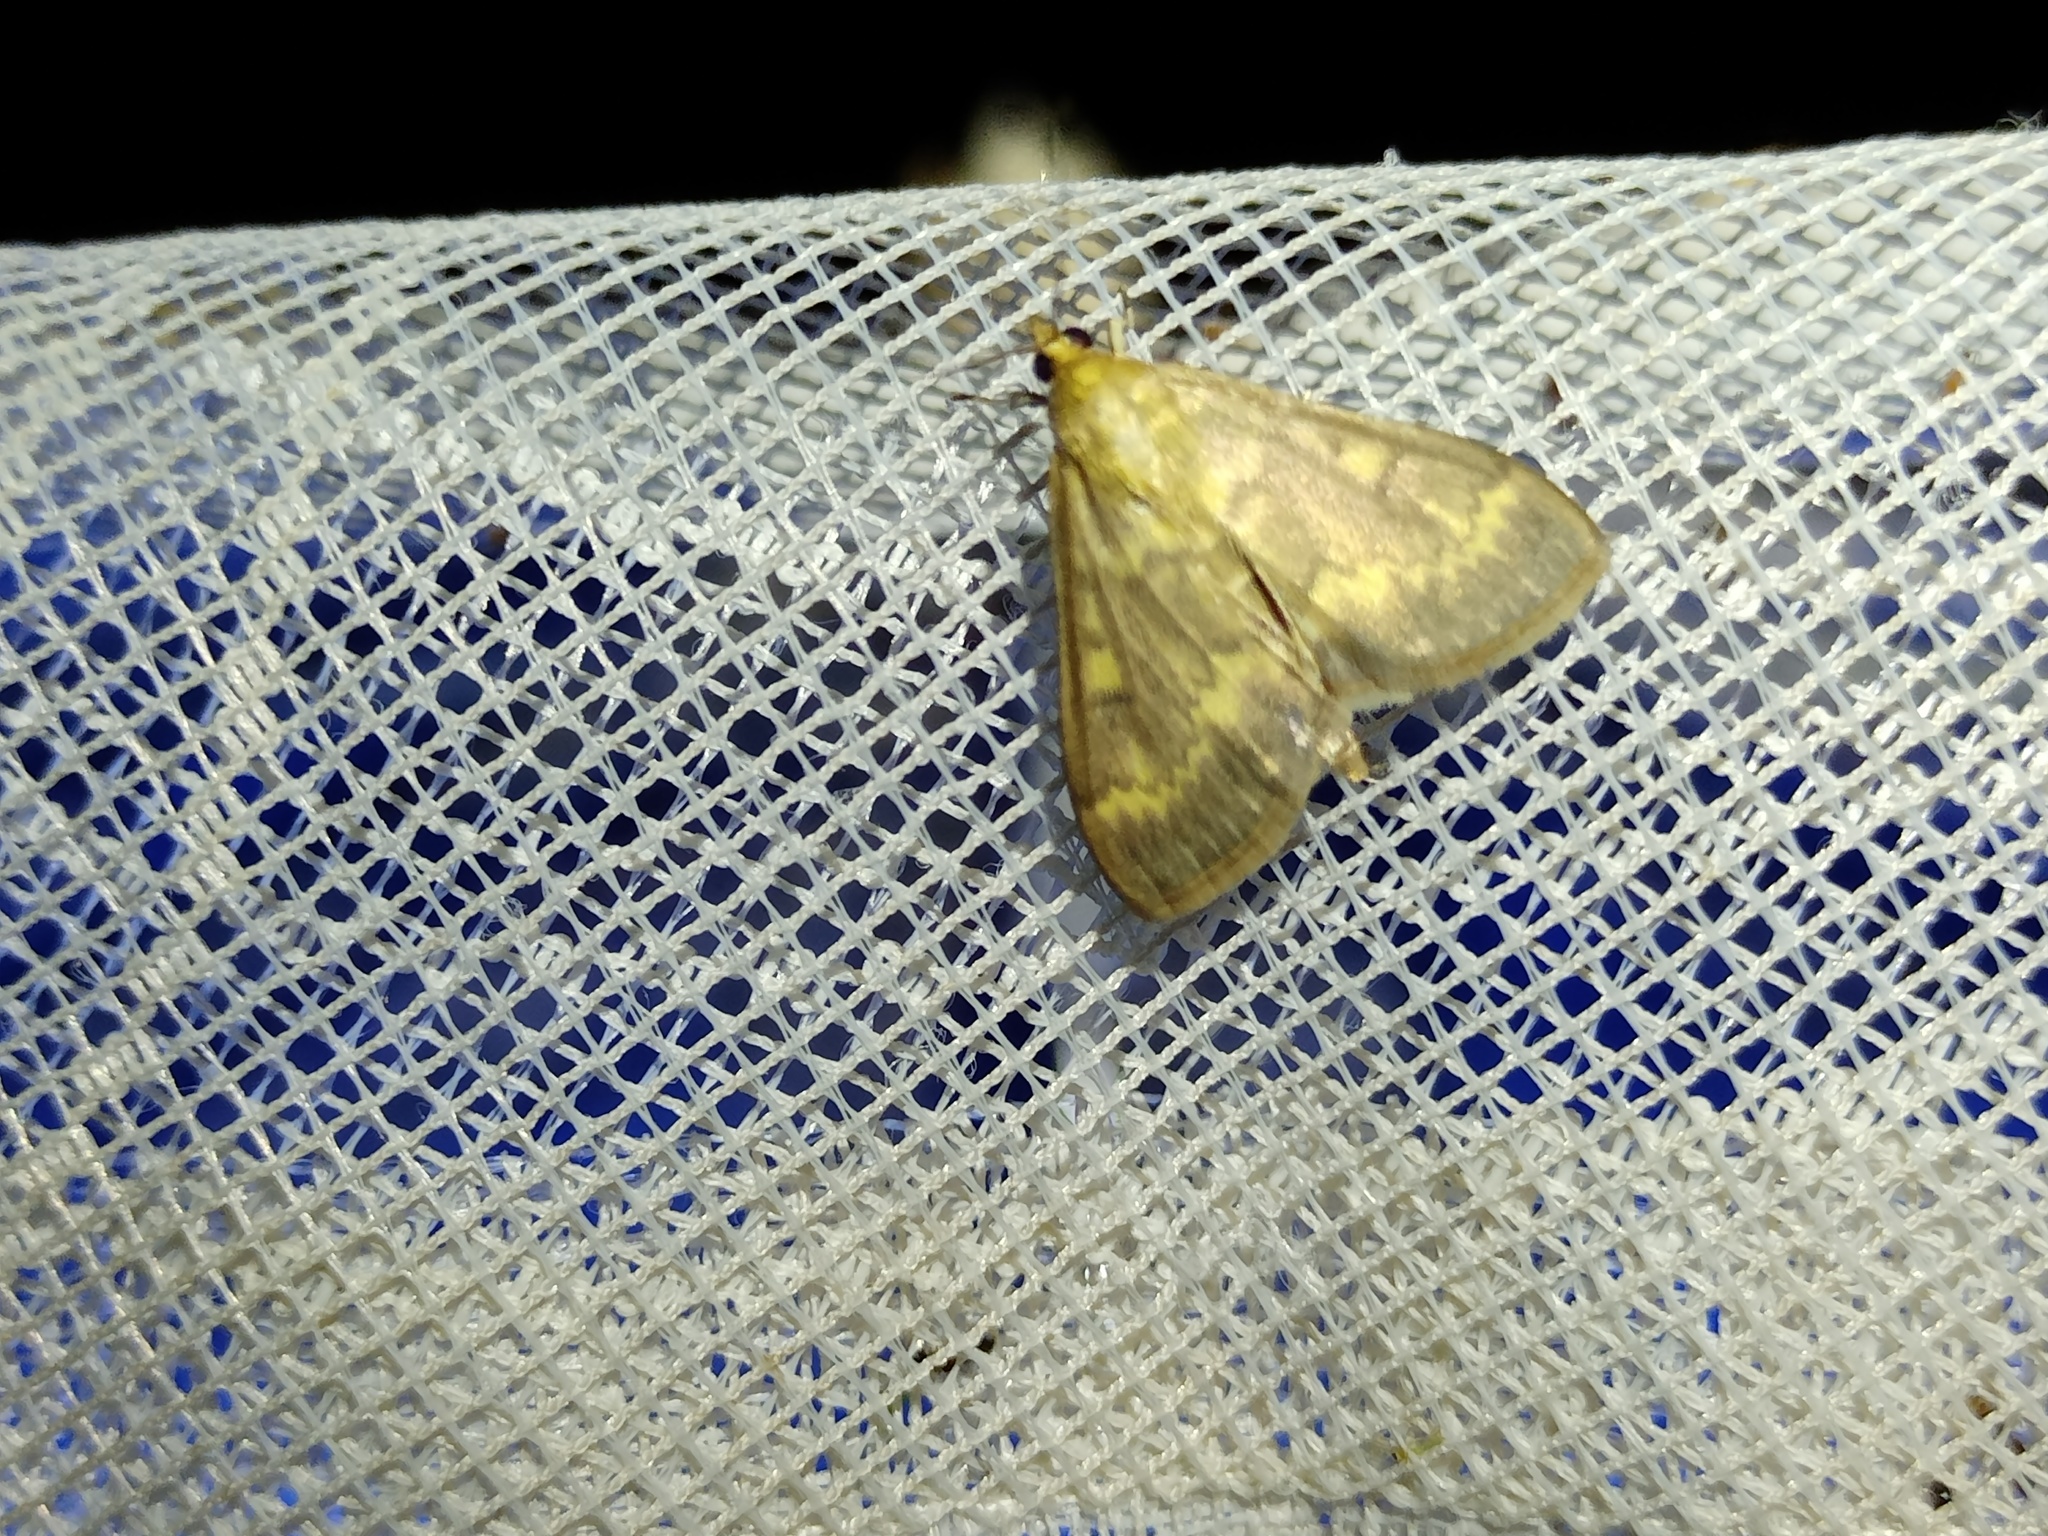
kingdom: Animalia
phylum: Arthropoda
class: Insecta
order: Lepidoptera
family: Crambidae
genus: Ostrinia
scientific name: Ostrinia nubilalis
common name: European corn borer
